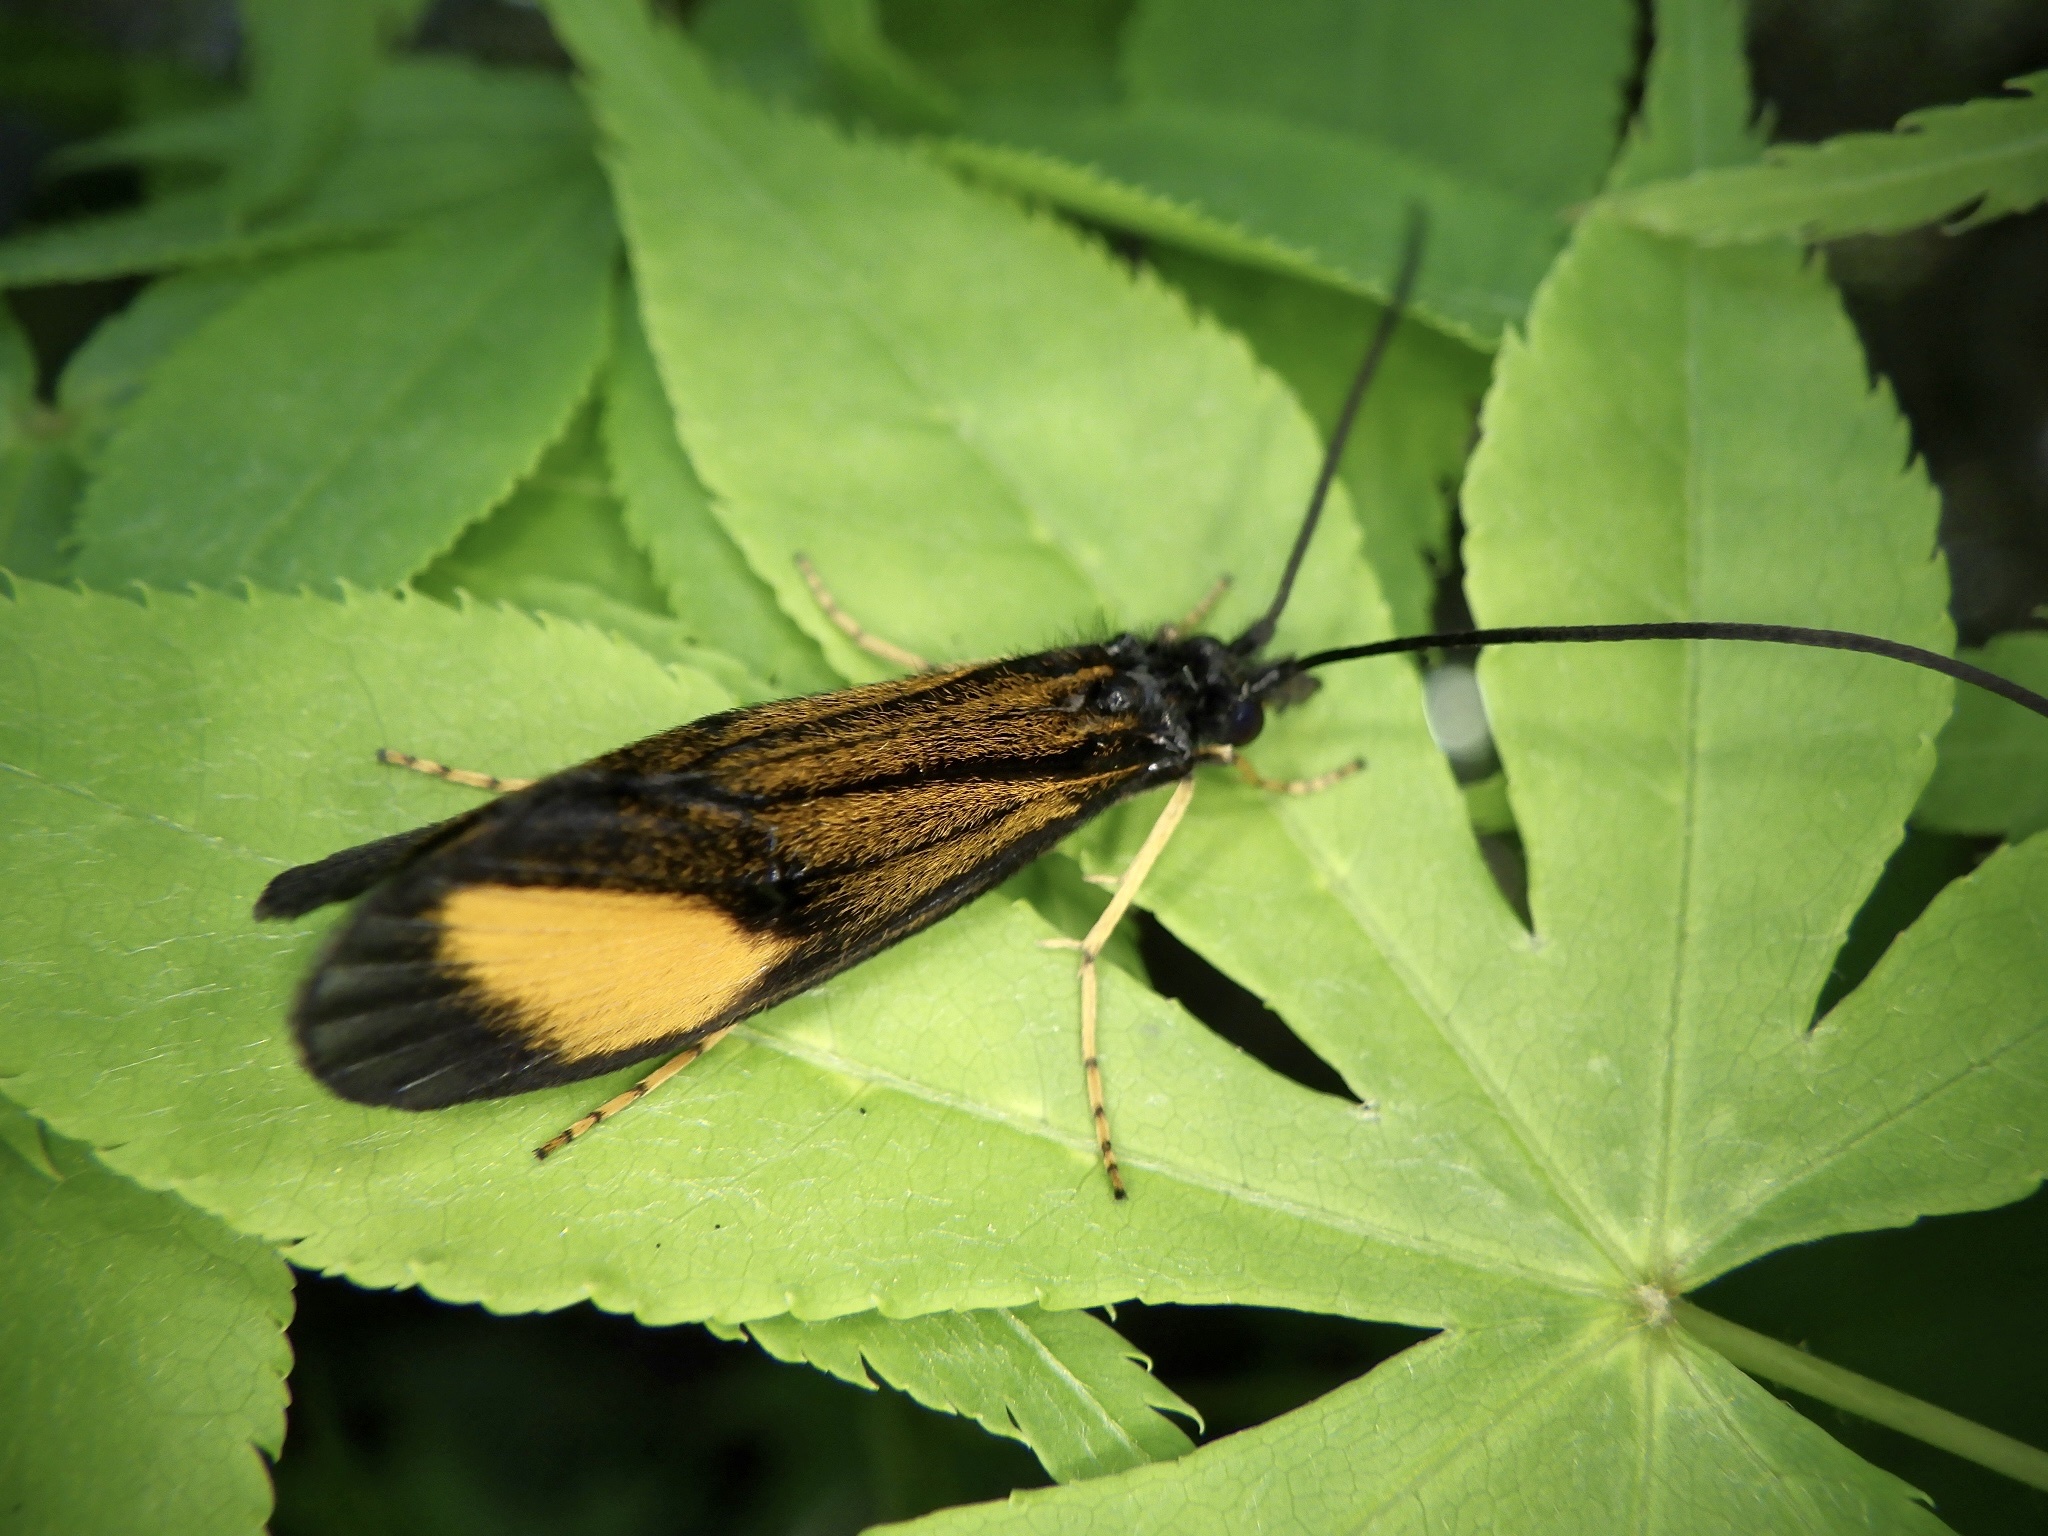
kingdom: Animalia
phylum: Arthropoda
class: Insecta
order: Trichoptera
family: Odontoceridae
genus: Perissoneura
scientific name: Perissoneura paradoxa
